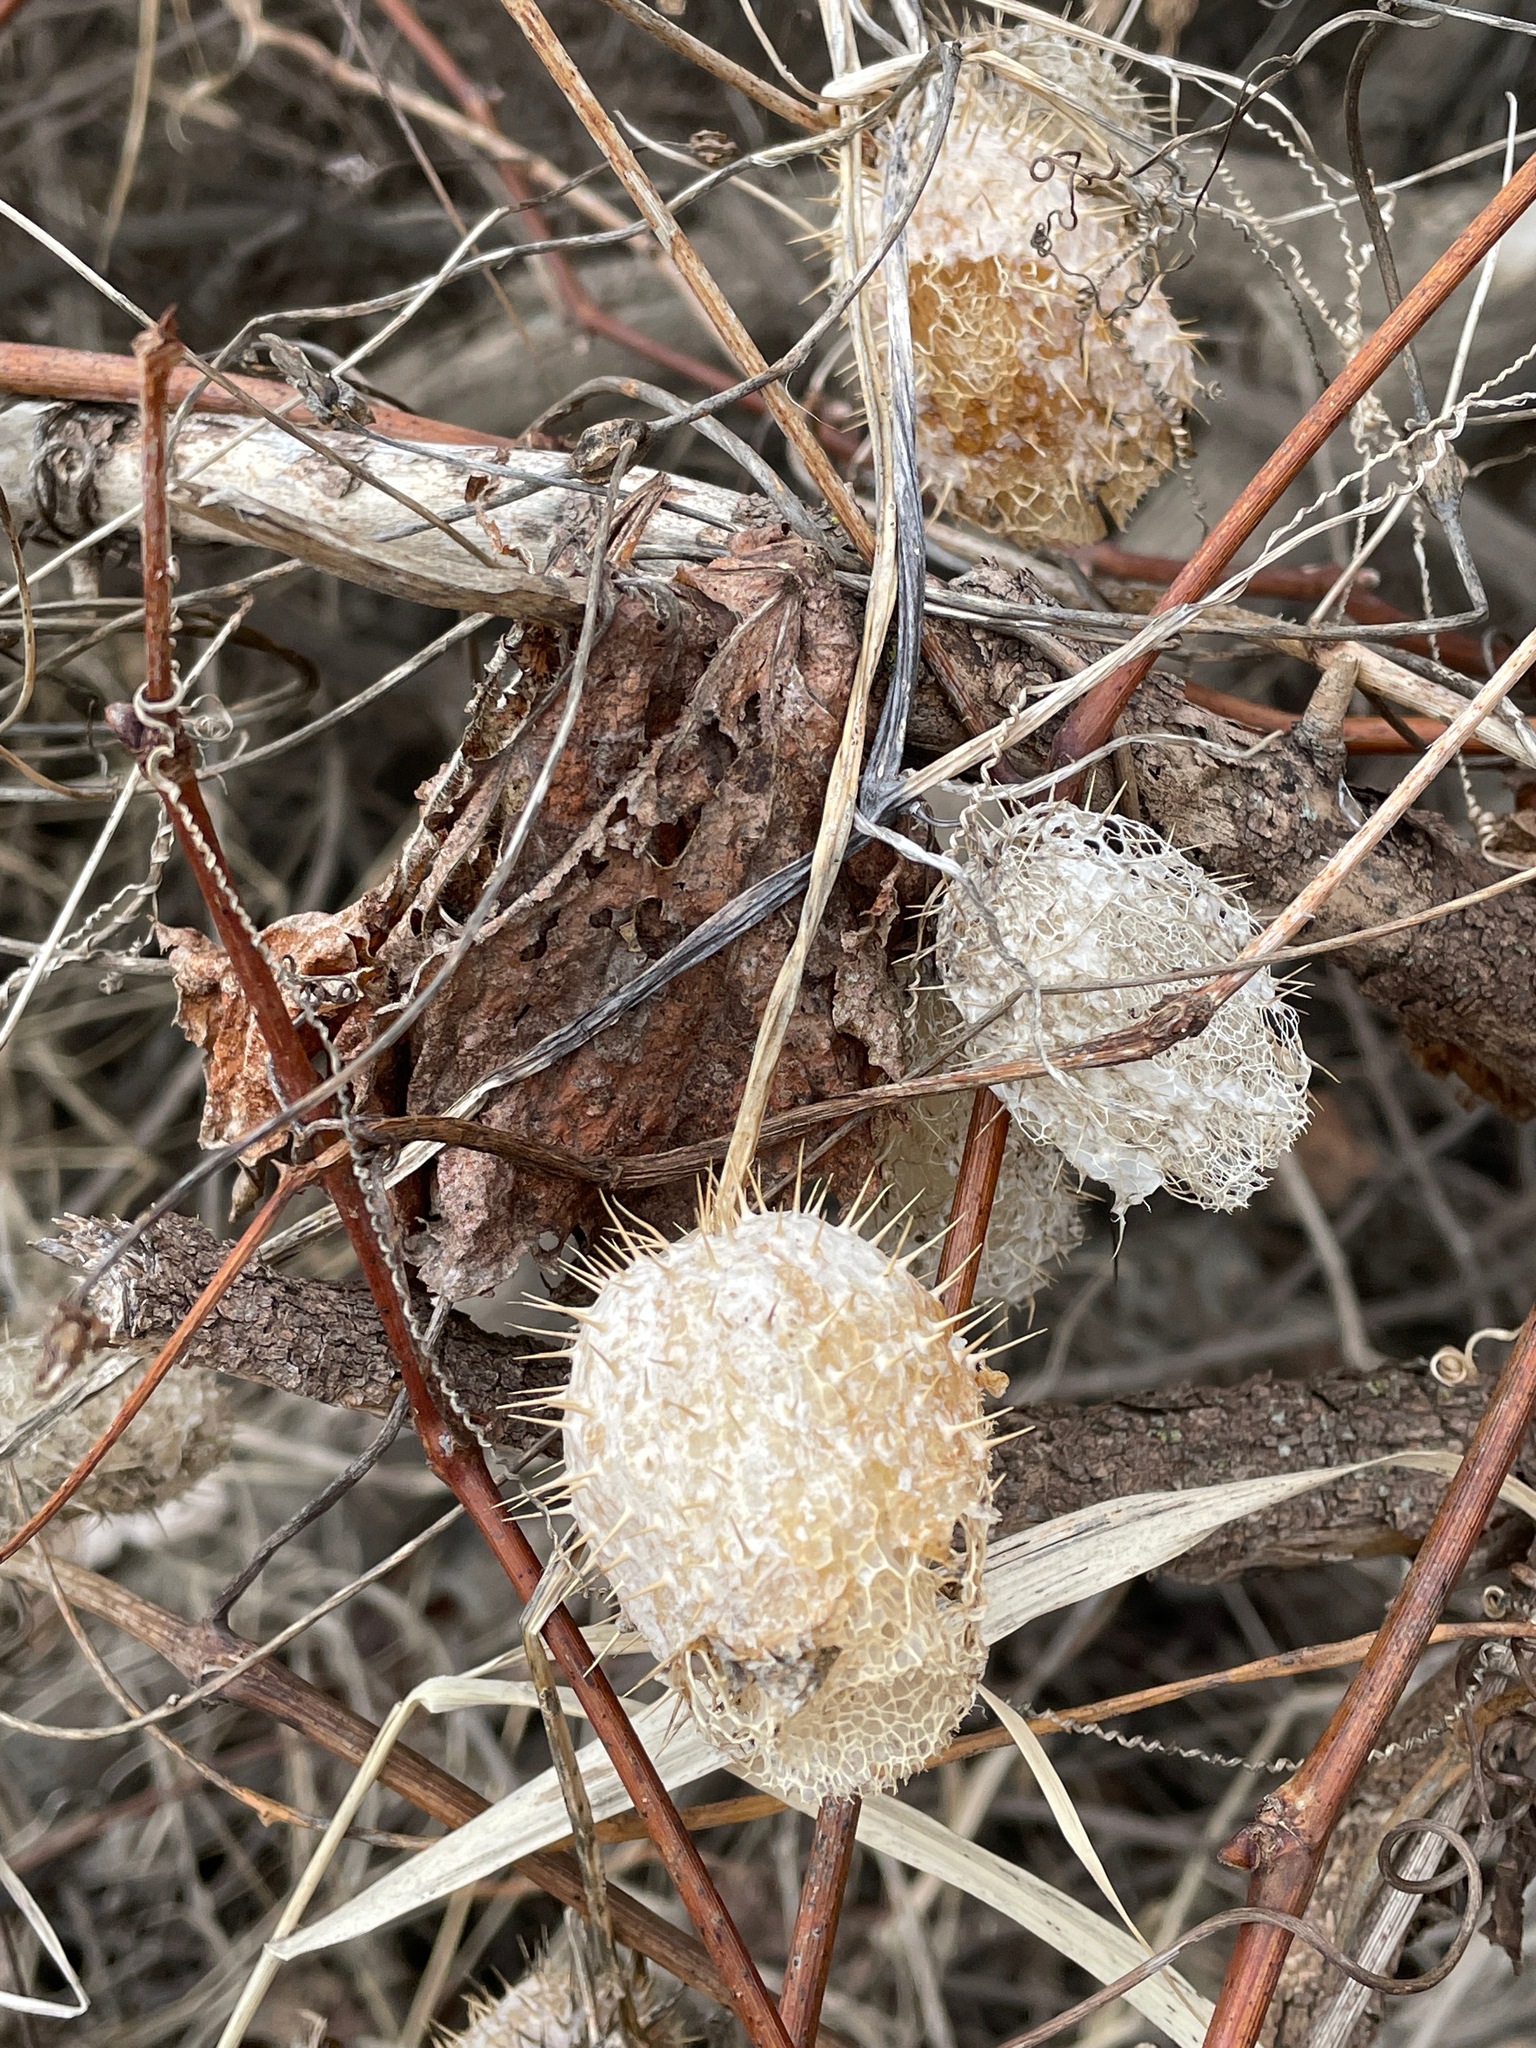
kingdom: Plantae
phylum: Tracheophyta
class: Magnoliopsida
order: Cucurbitales
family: Cucurbitaceae
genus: Echinocystis
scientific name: Echinocystis lobata
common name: Wild cucumber
